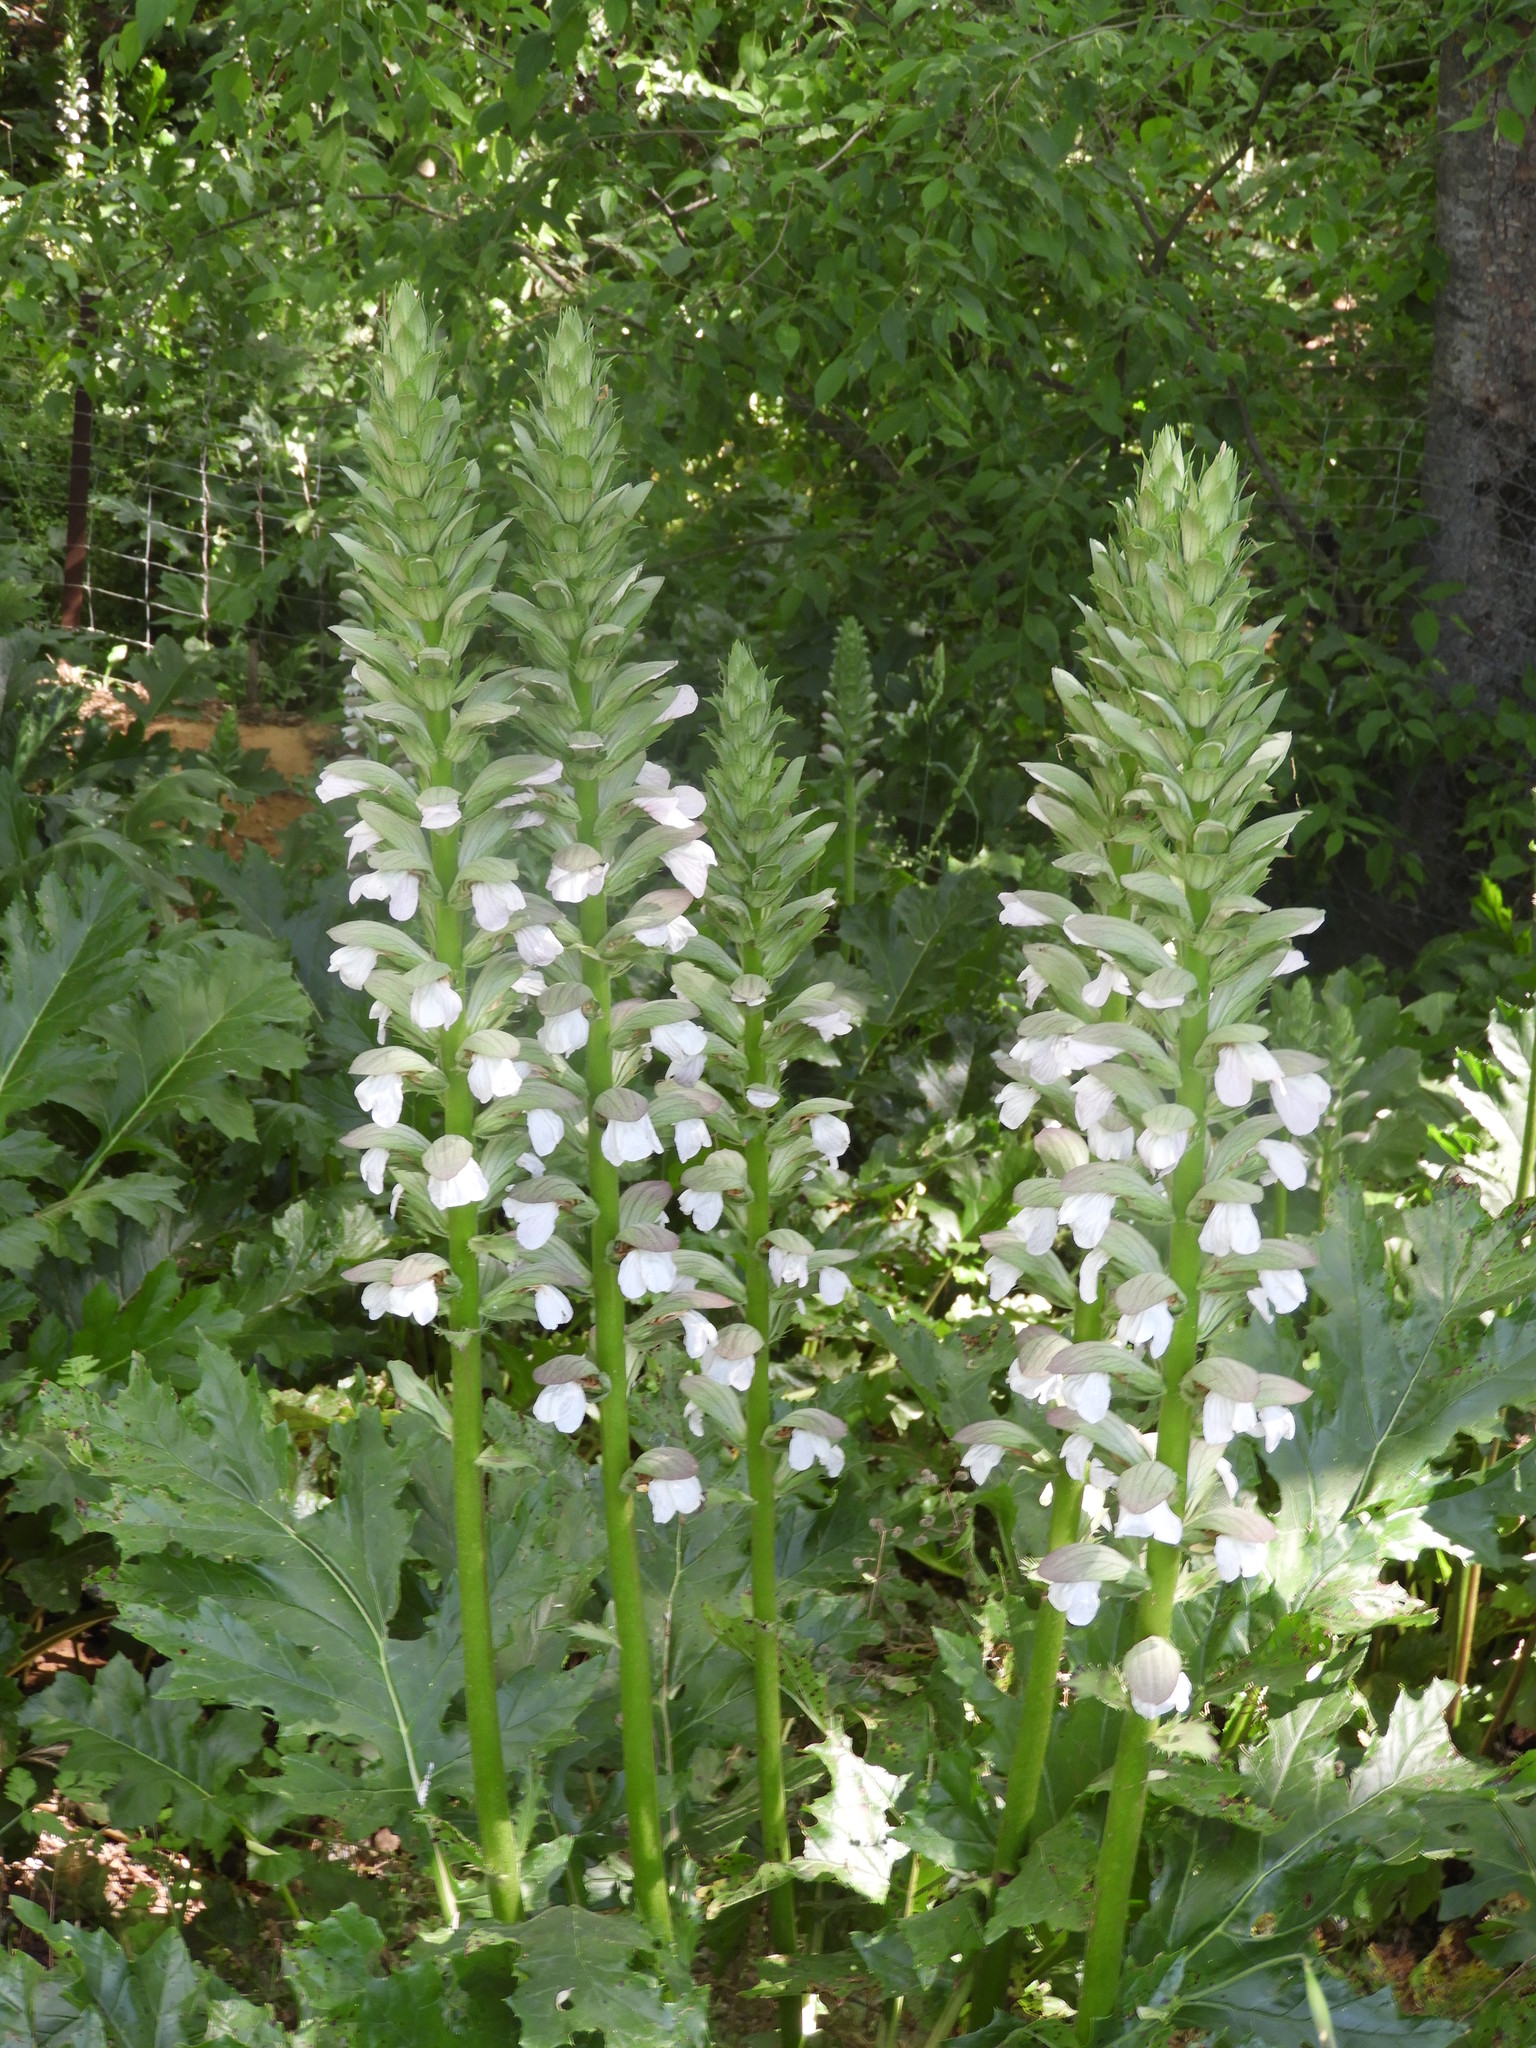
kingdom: Plantae
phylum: Tracheophyta
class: Magnoliopsida
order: Lamiales
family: Acanthaceae
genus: Acanthus
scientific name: Acanthus mollis
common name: Bear's-breech
